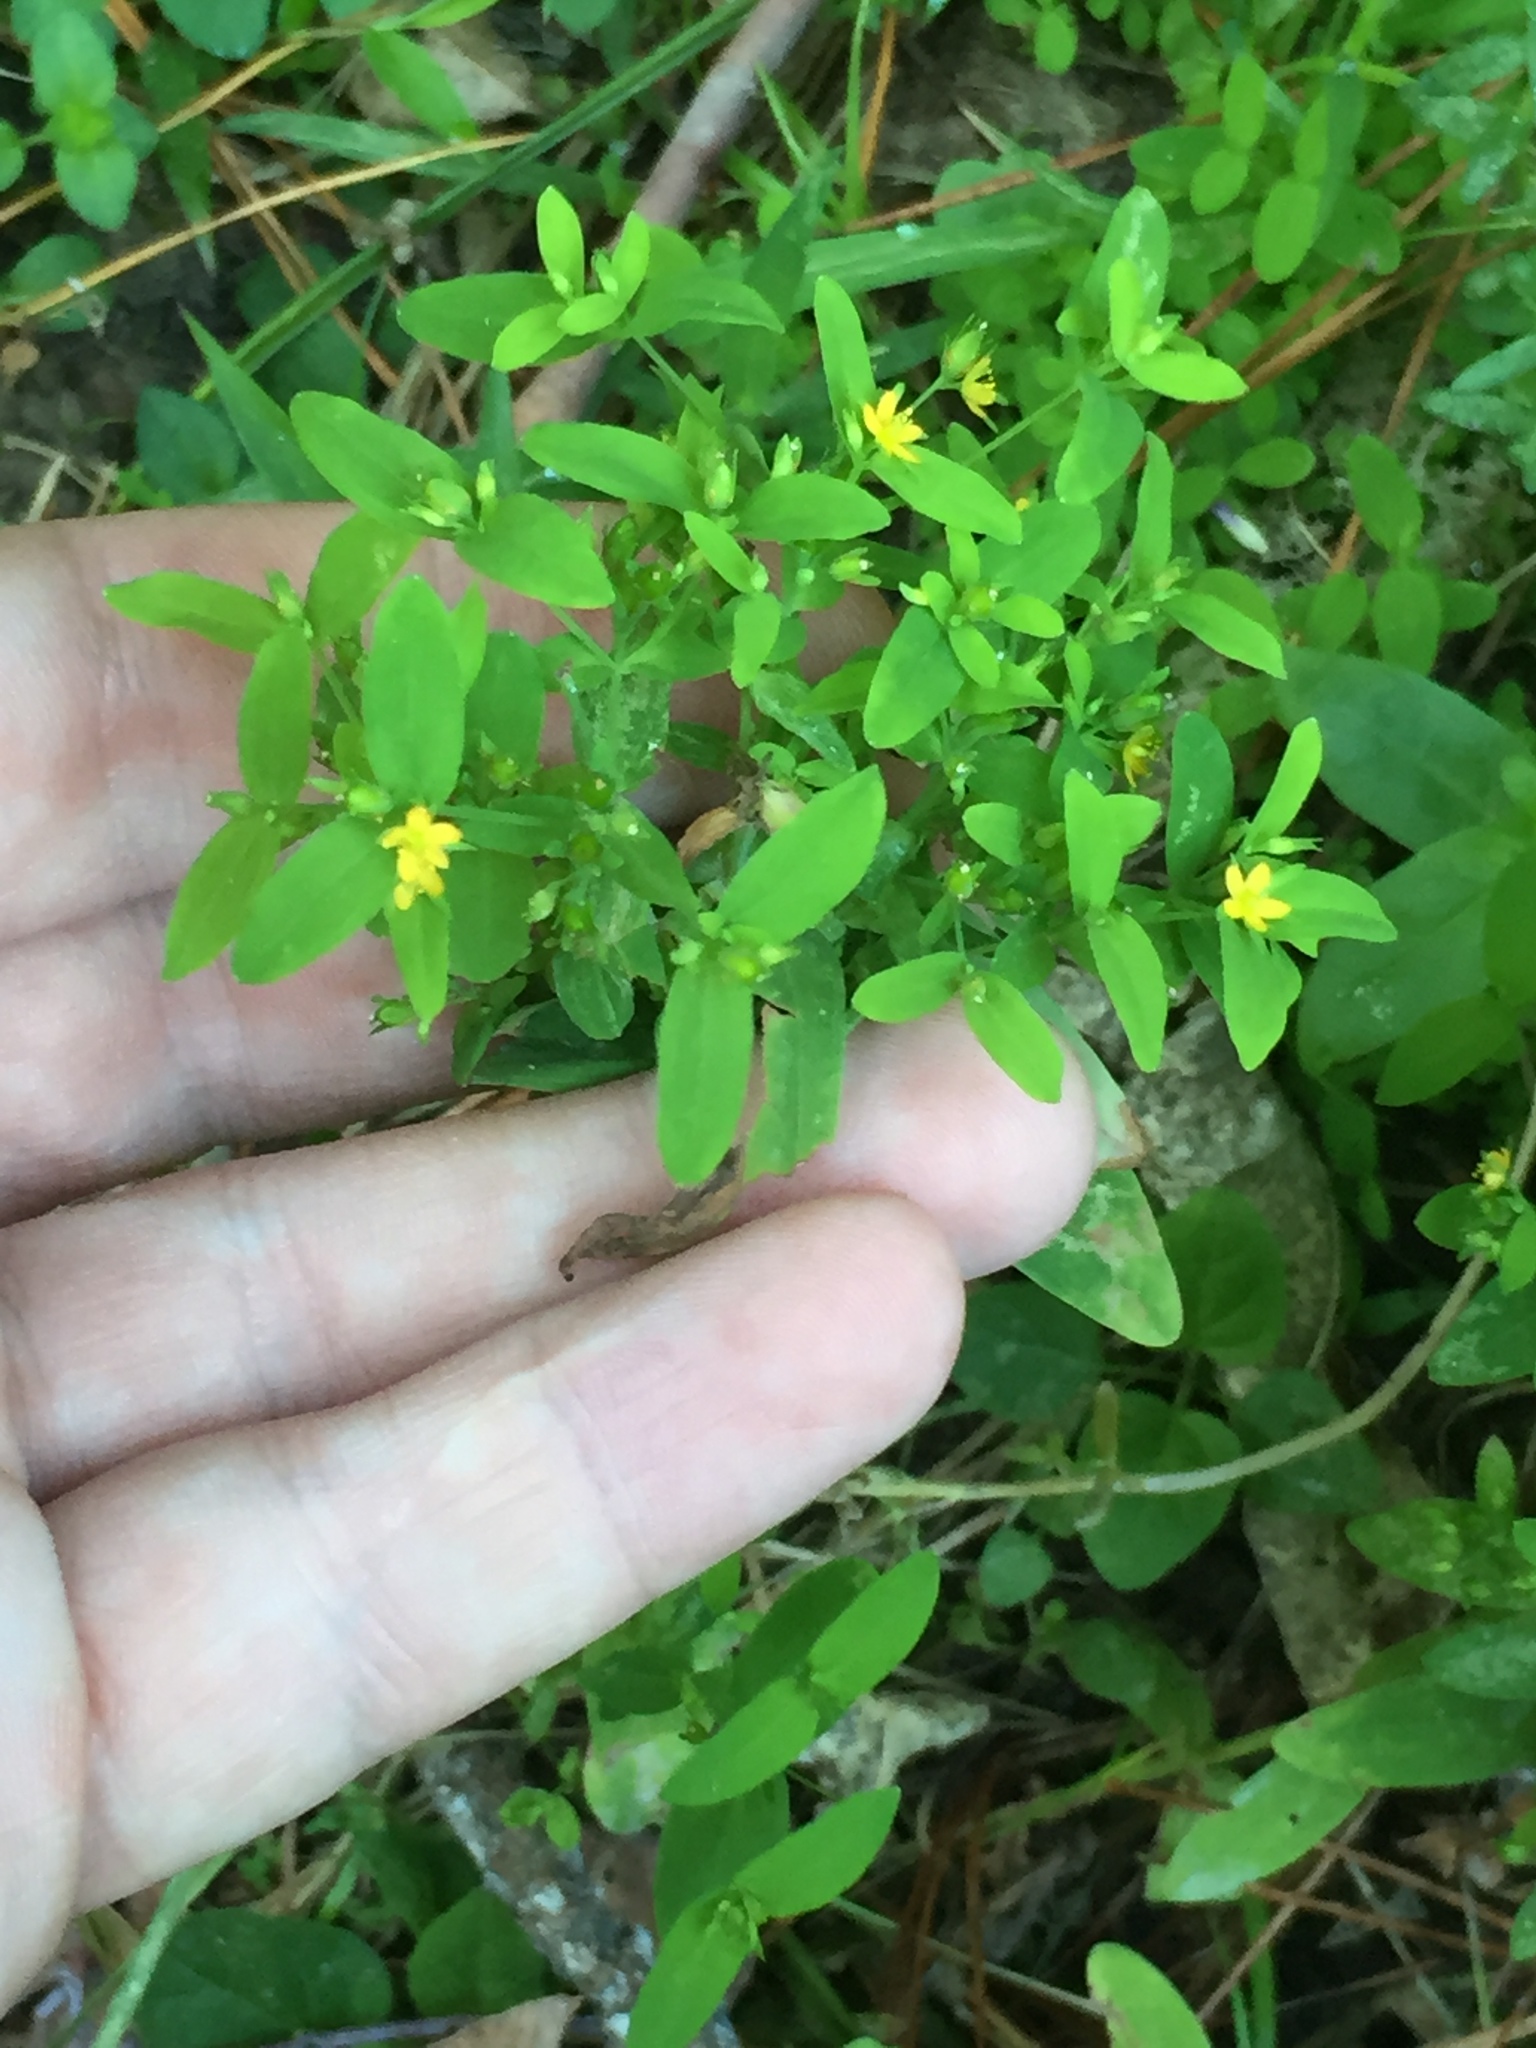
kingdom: Plantae
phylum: Tracheophyta
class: Magnoliopsida
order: Malpighiales
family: Hypericaceae
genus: Hypericum
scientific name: Hypericum mutilum
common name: Dwarf st. john's-wort
